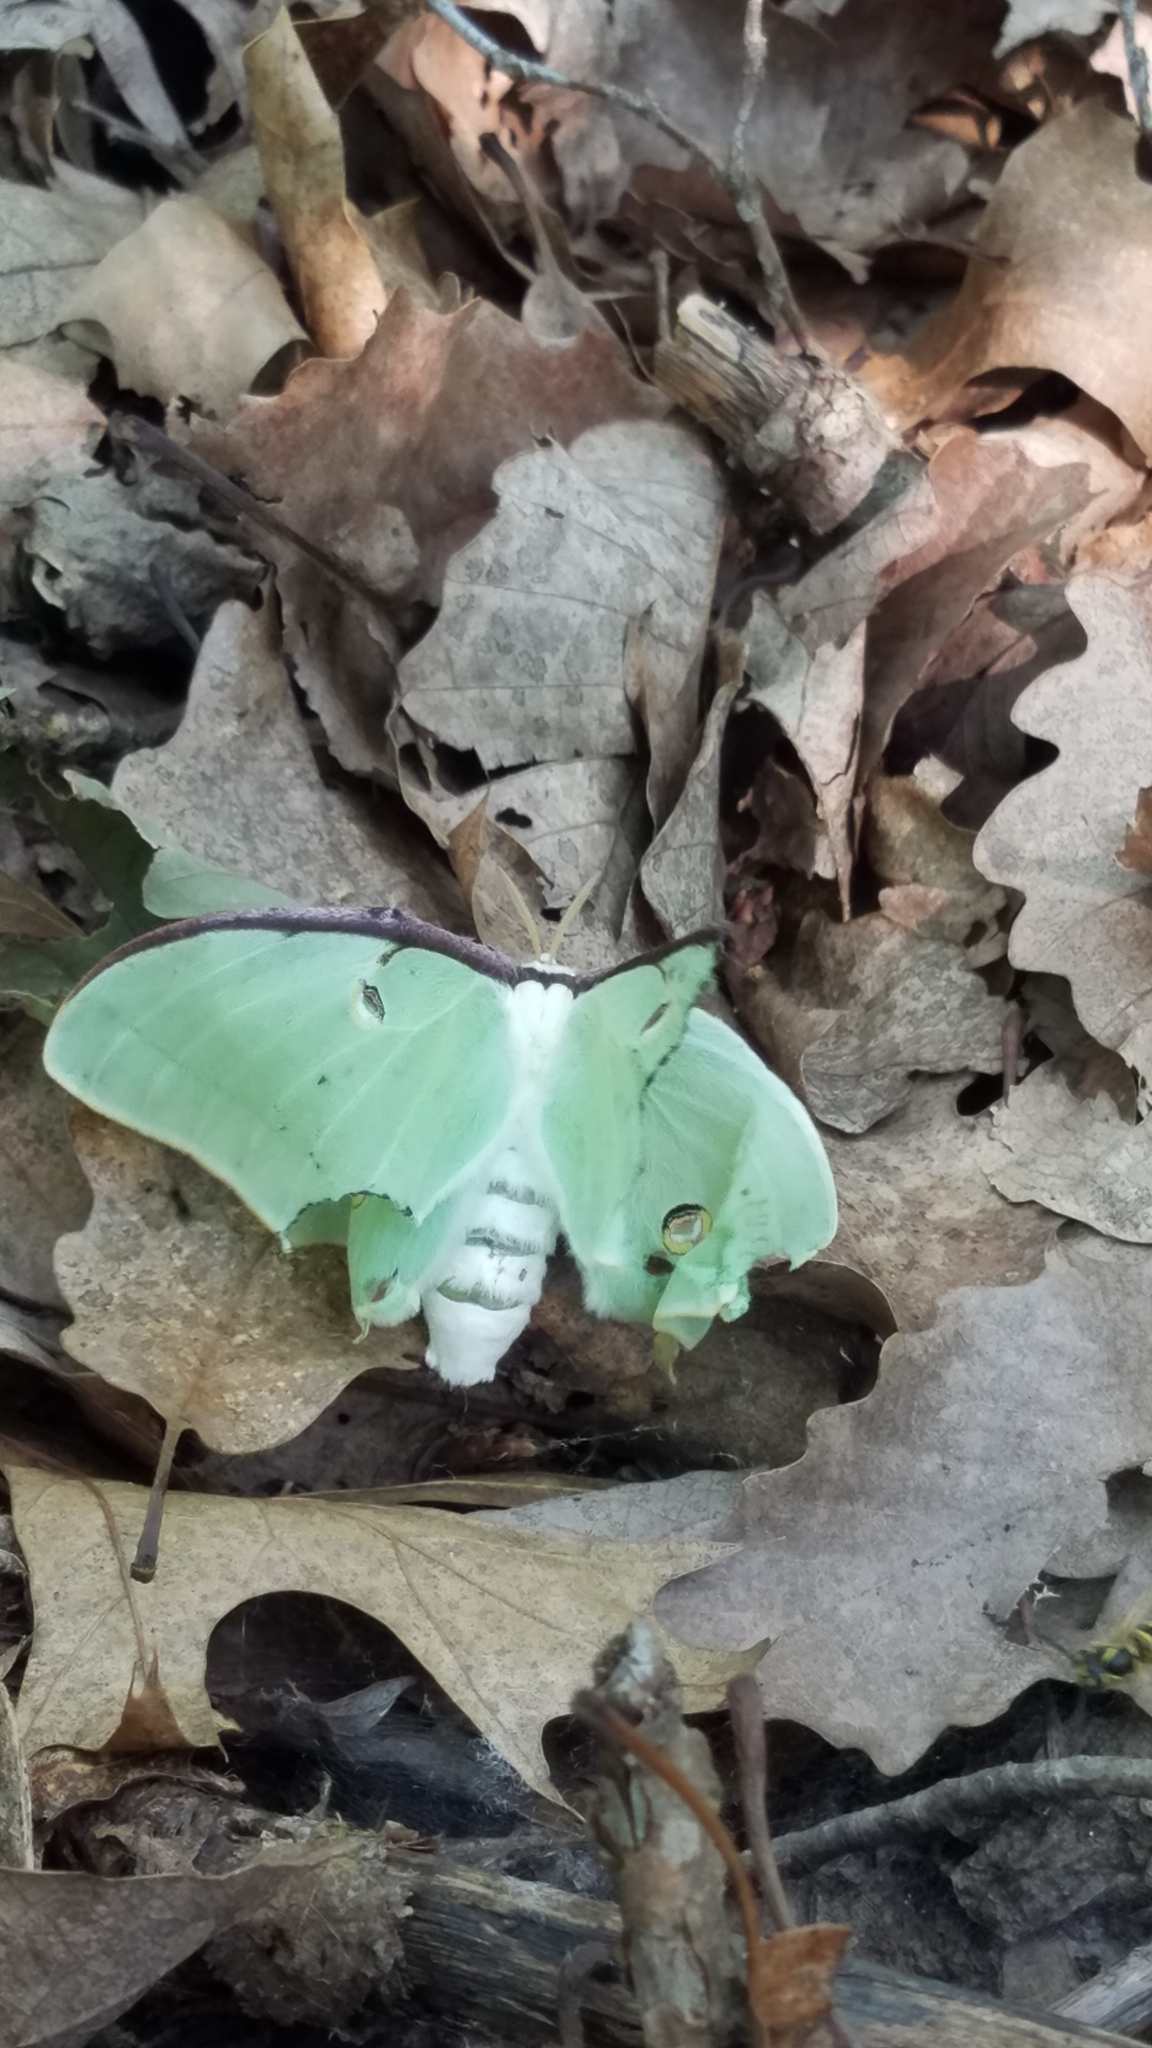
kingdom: Animalia
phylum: Arthropoda
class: Insecta
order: Lepidoptera
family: Saturniidae
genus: Actias
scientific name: Actias luna
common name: Luna moth
